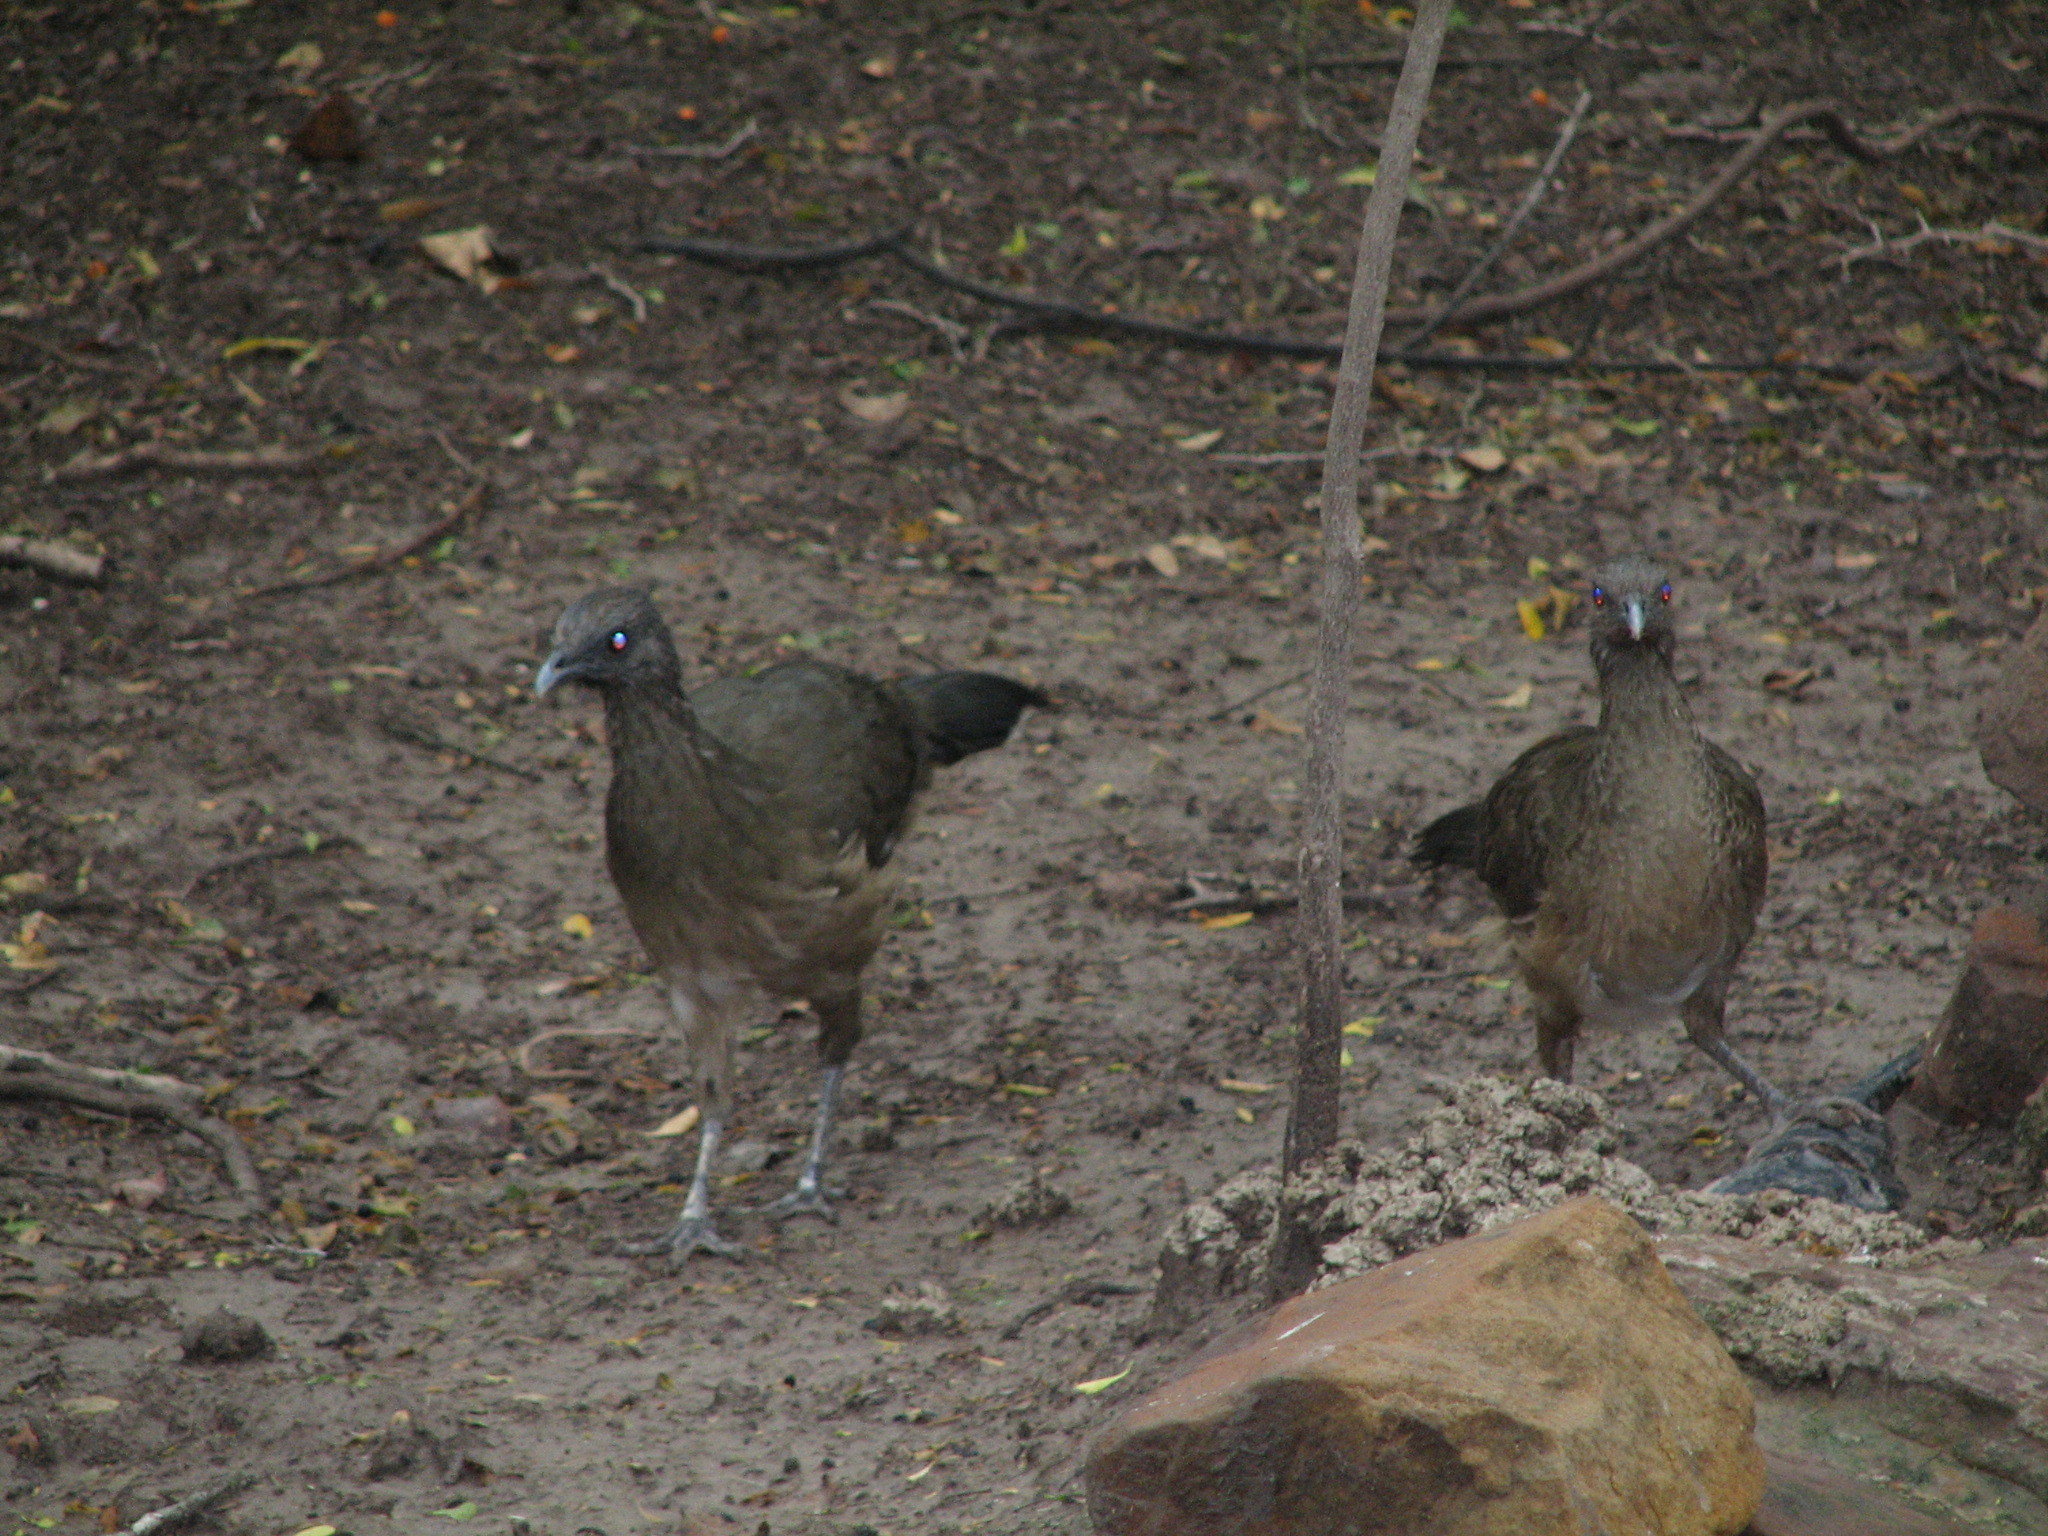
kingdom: Animalia
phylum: Chordata
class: Aves
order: Galliformes
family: Cracidae
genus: Ortalis
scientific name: Ortalis vetula
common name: Plain chachalaca
